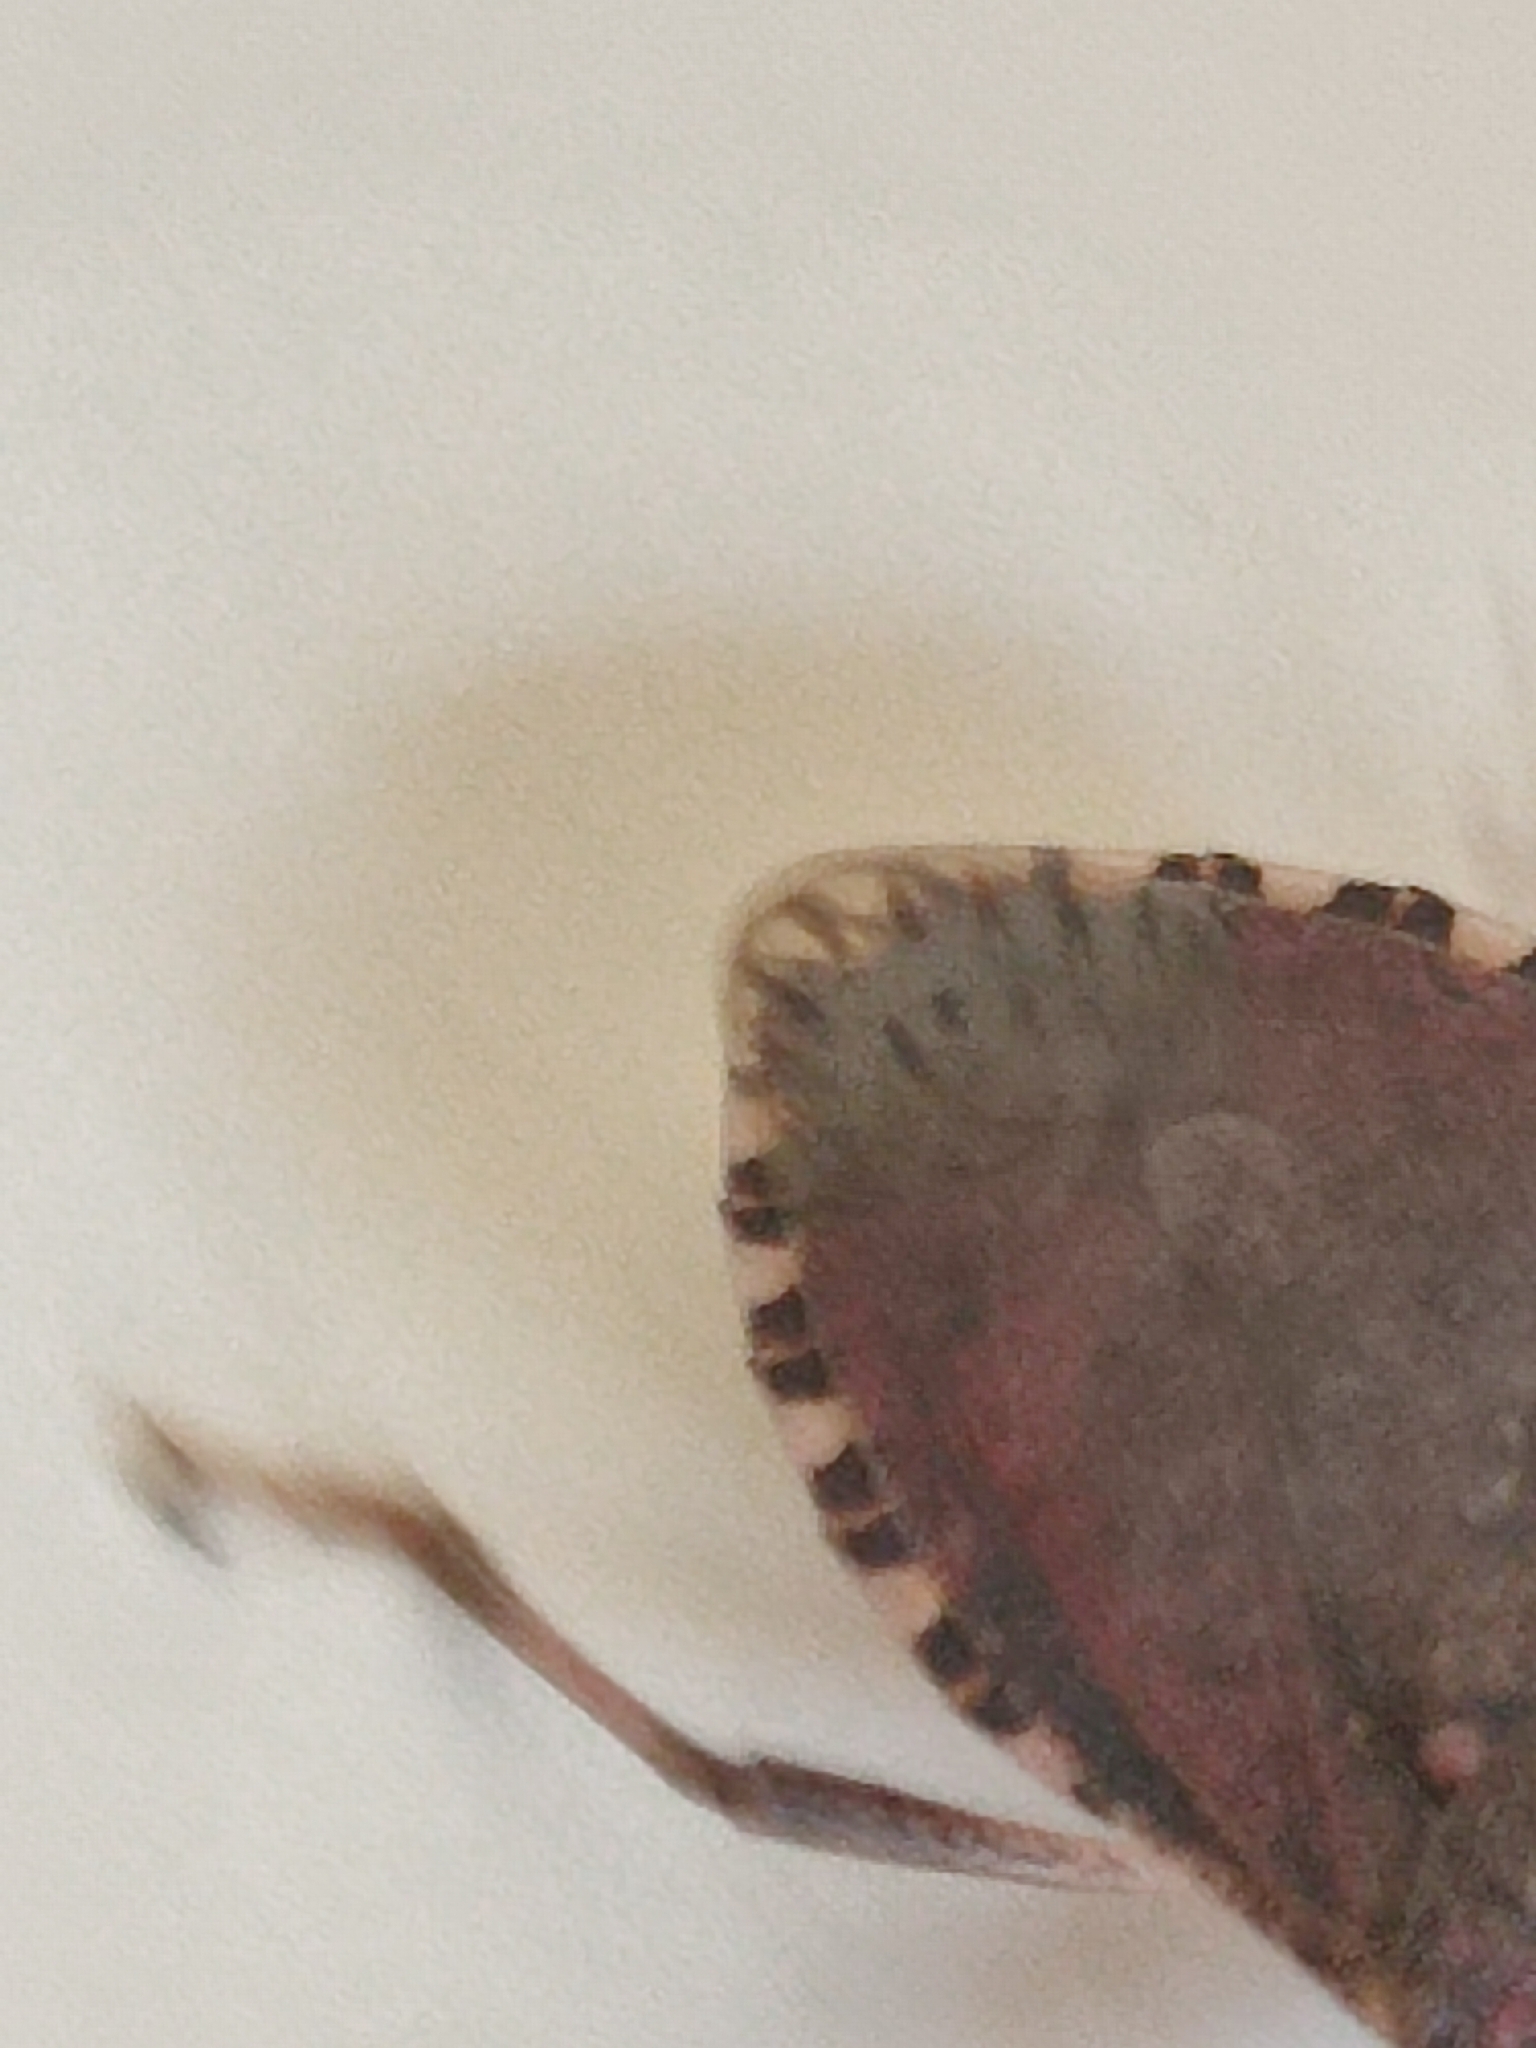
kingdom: Animalia
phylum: Arthropoda
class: Insecta
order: Hemiptera
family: Pentatomidae
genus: Halyomorpha
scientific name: Halyomorpha halys
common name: Brown marmorated stink bug
